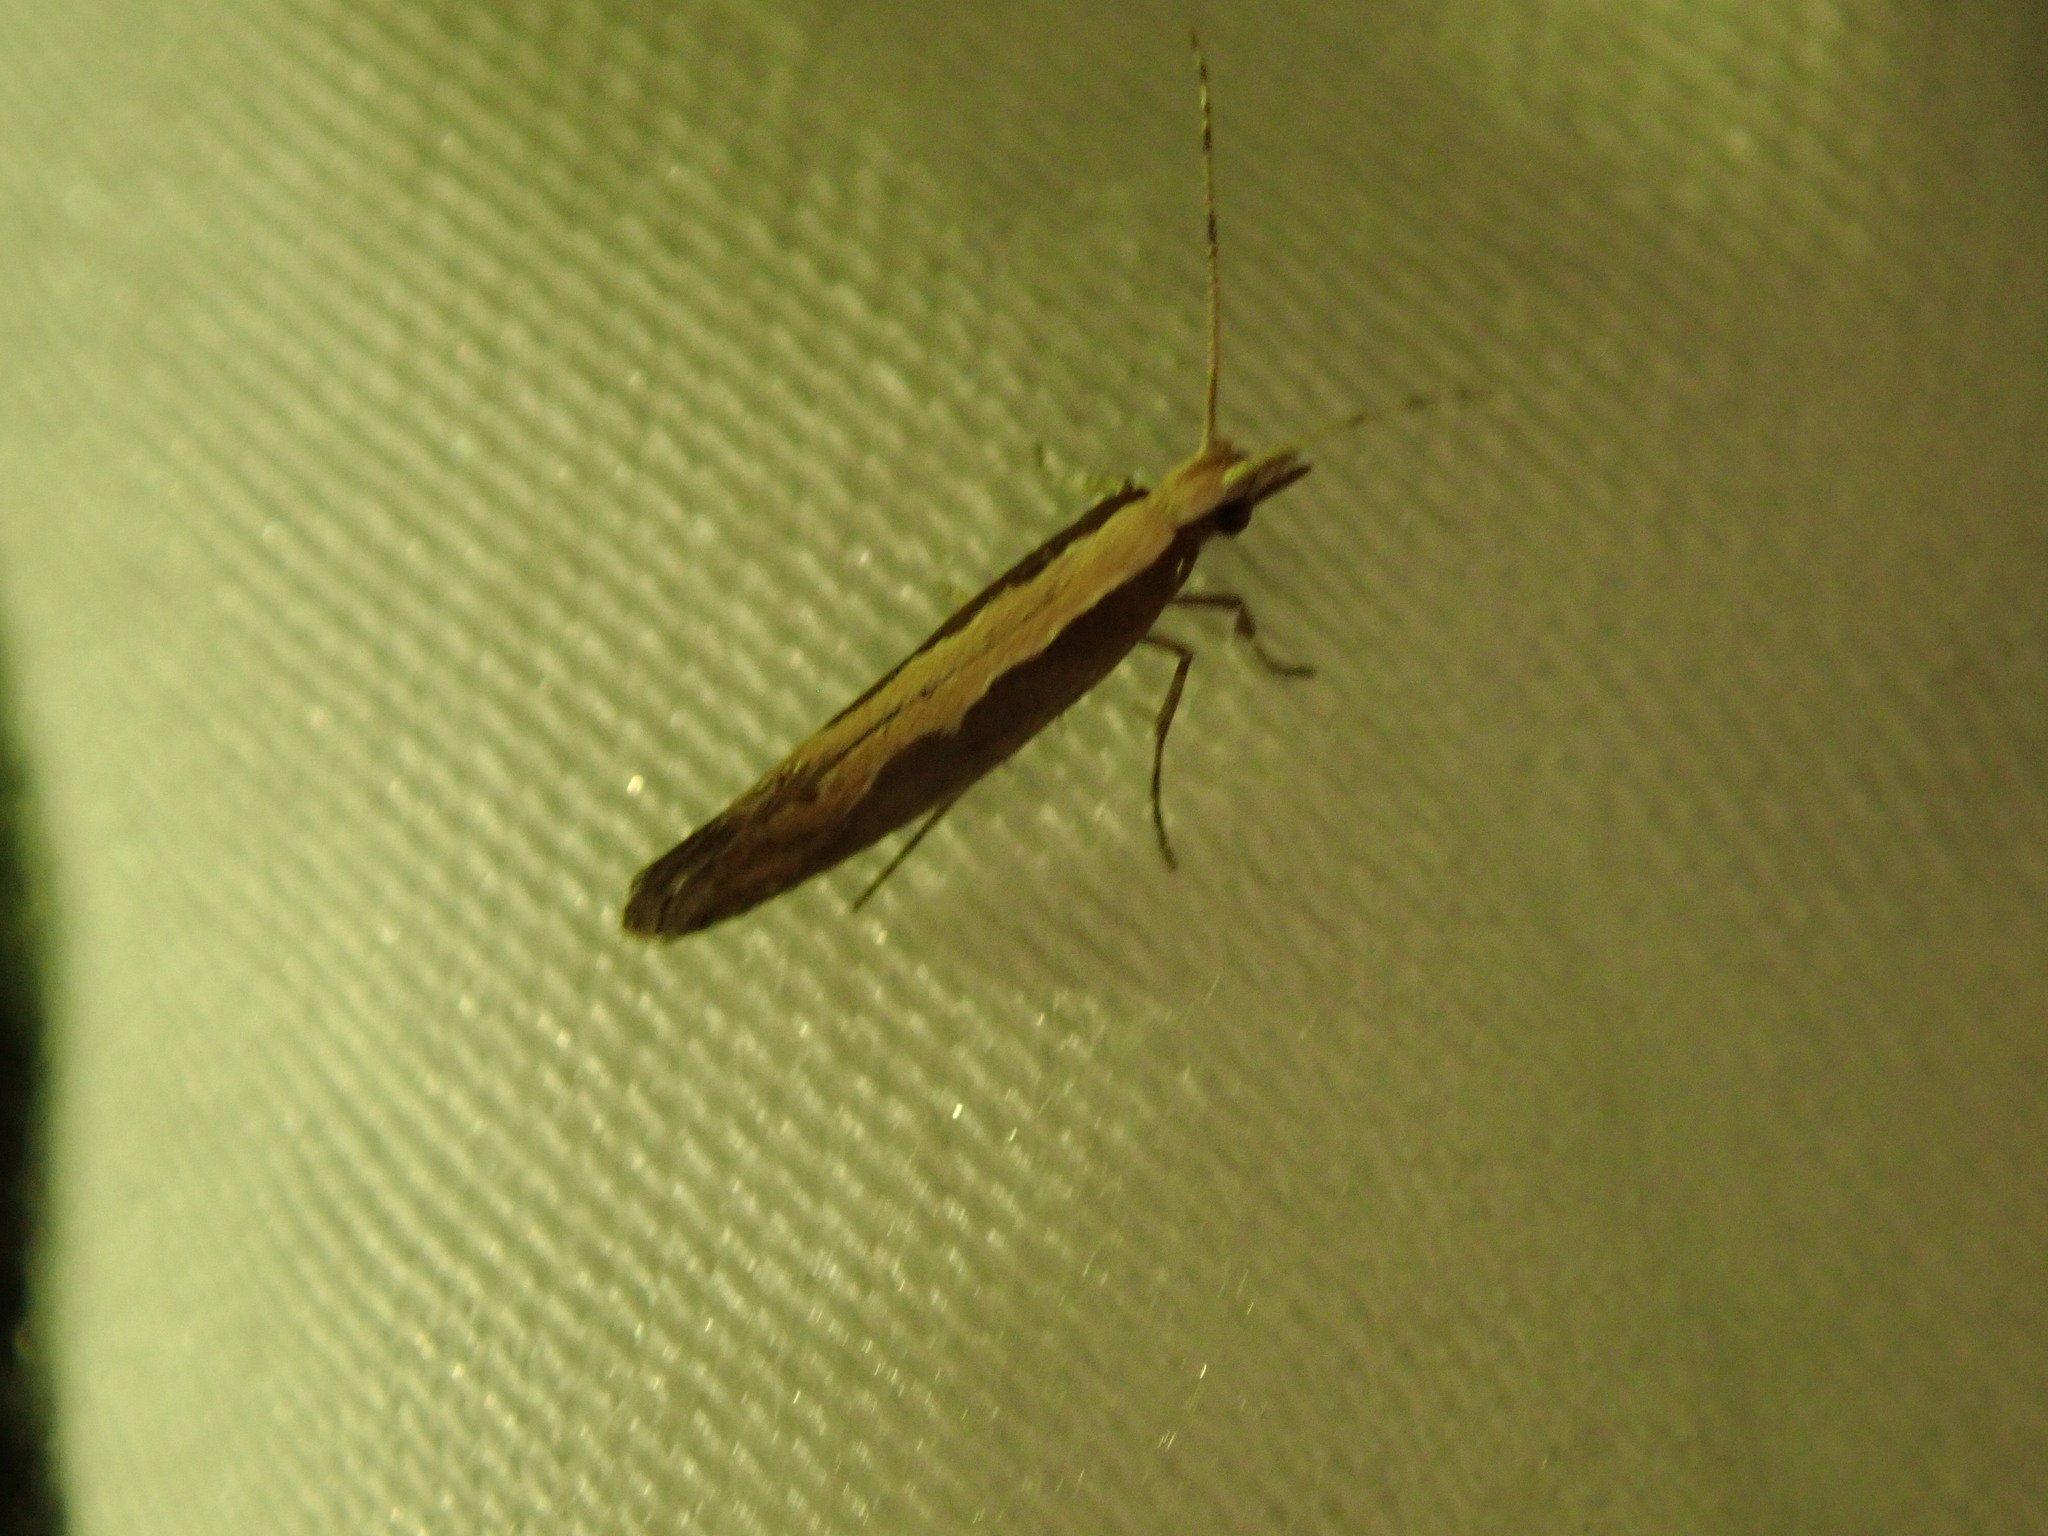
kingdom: Animalia
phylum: Arthropoda
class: Insecta
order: Lepidoptera
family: Plutellidae
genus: Plutella
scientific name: Plutella xylostella
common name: Diamond-back moth
